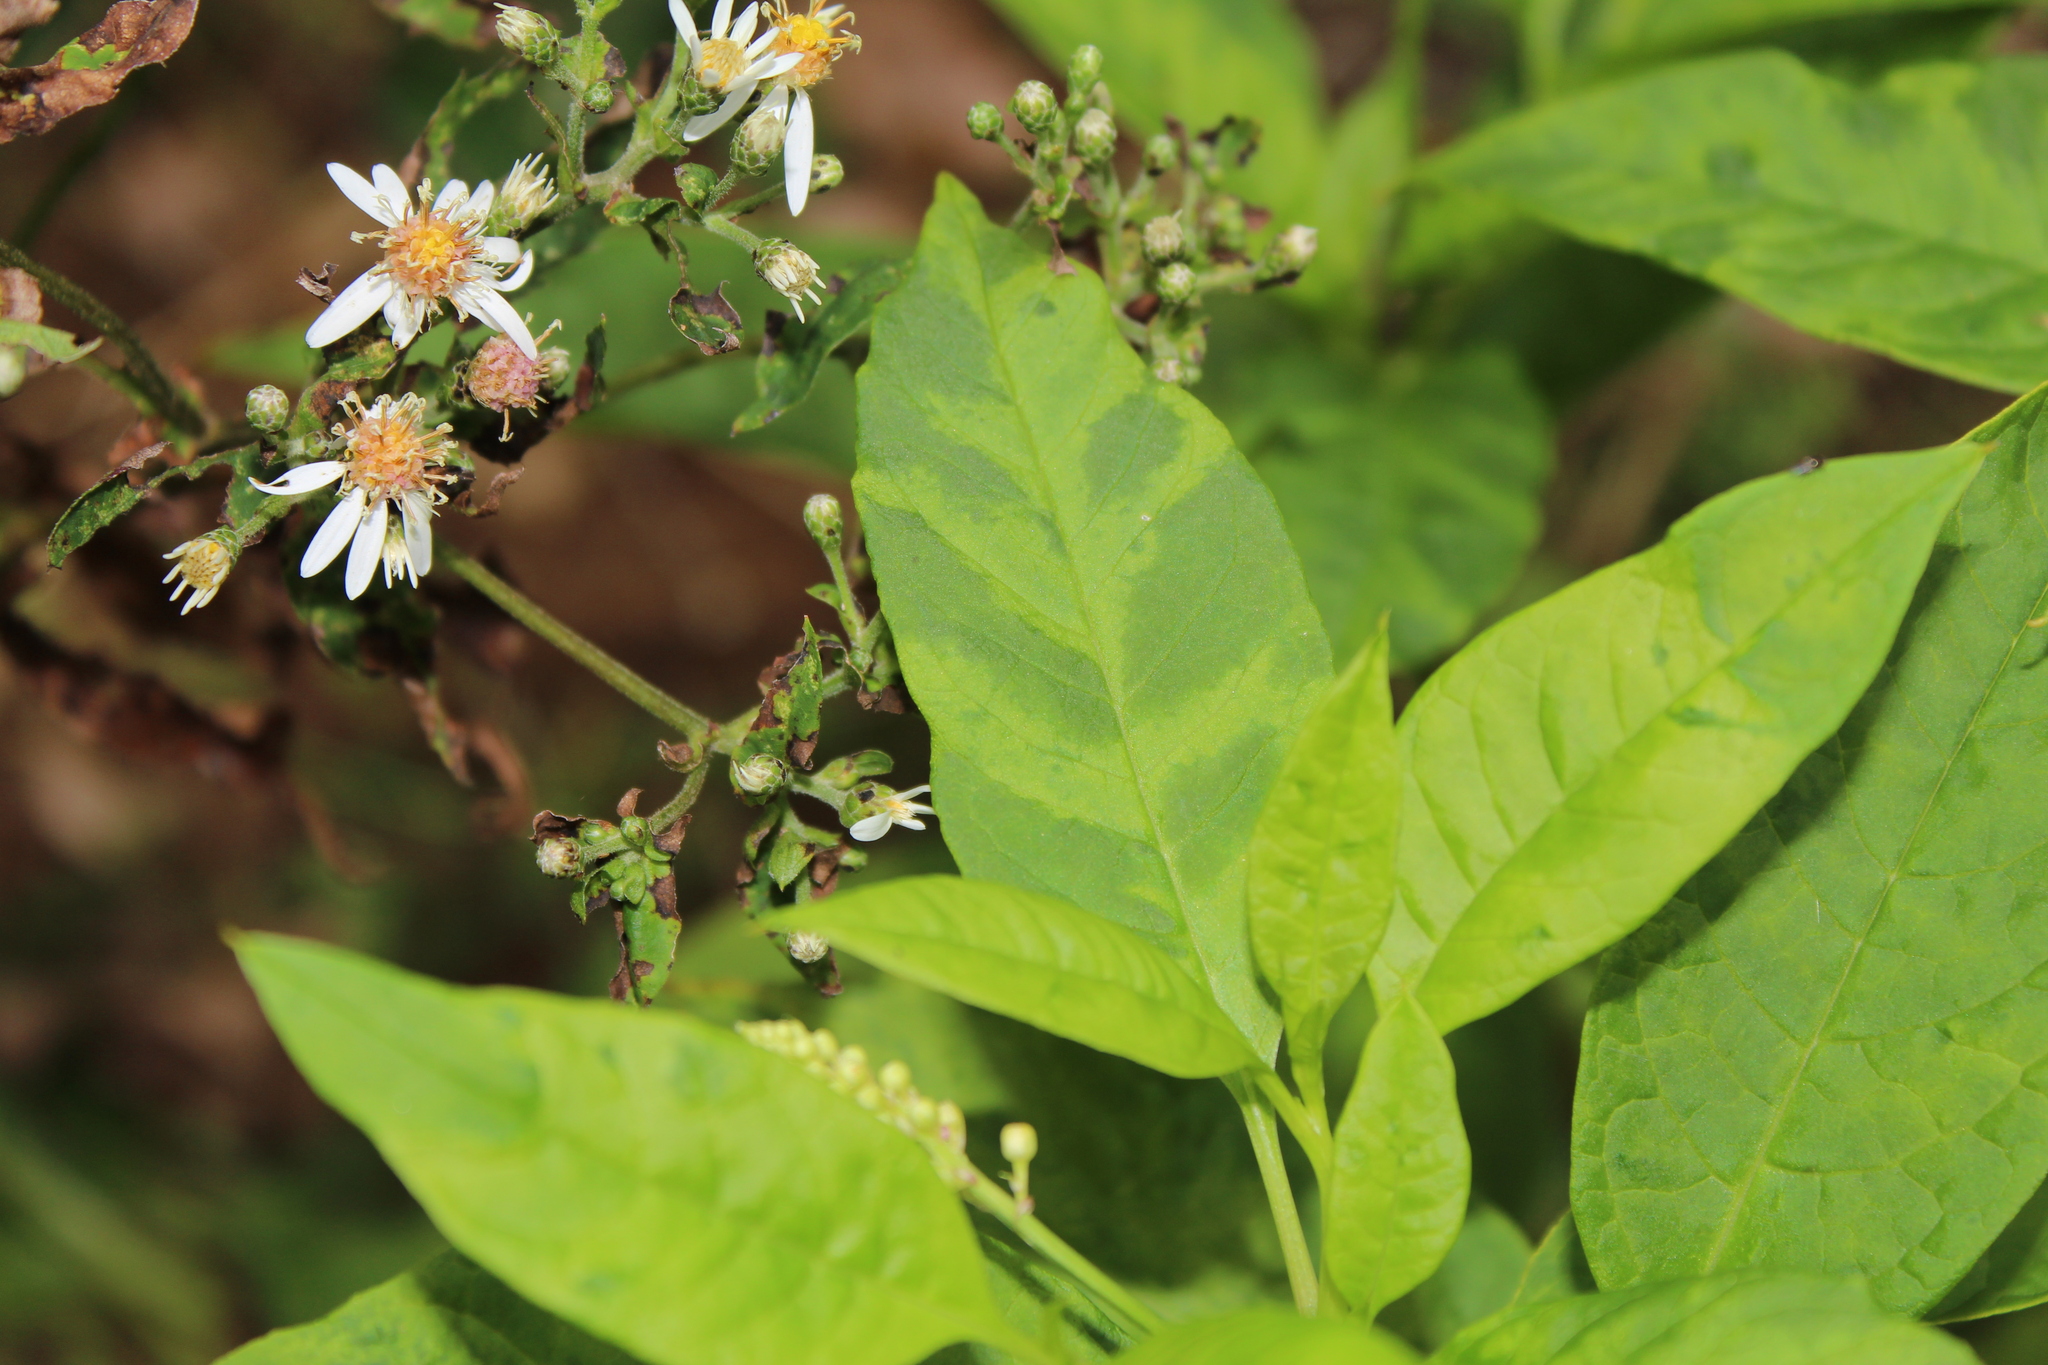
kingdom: Viruses
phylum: Pisuviricota
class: Stelpaviricetes
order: Patatavirales
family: Potyviridae
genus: Potyvirus
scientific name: Potyvirus Pokeweed mosaic virus
